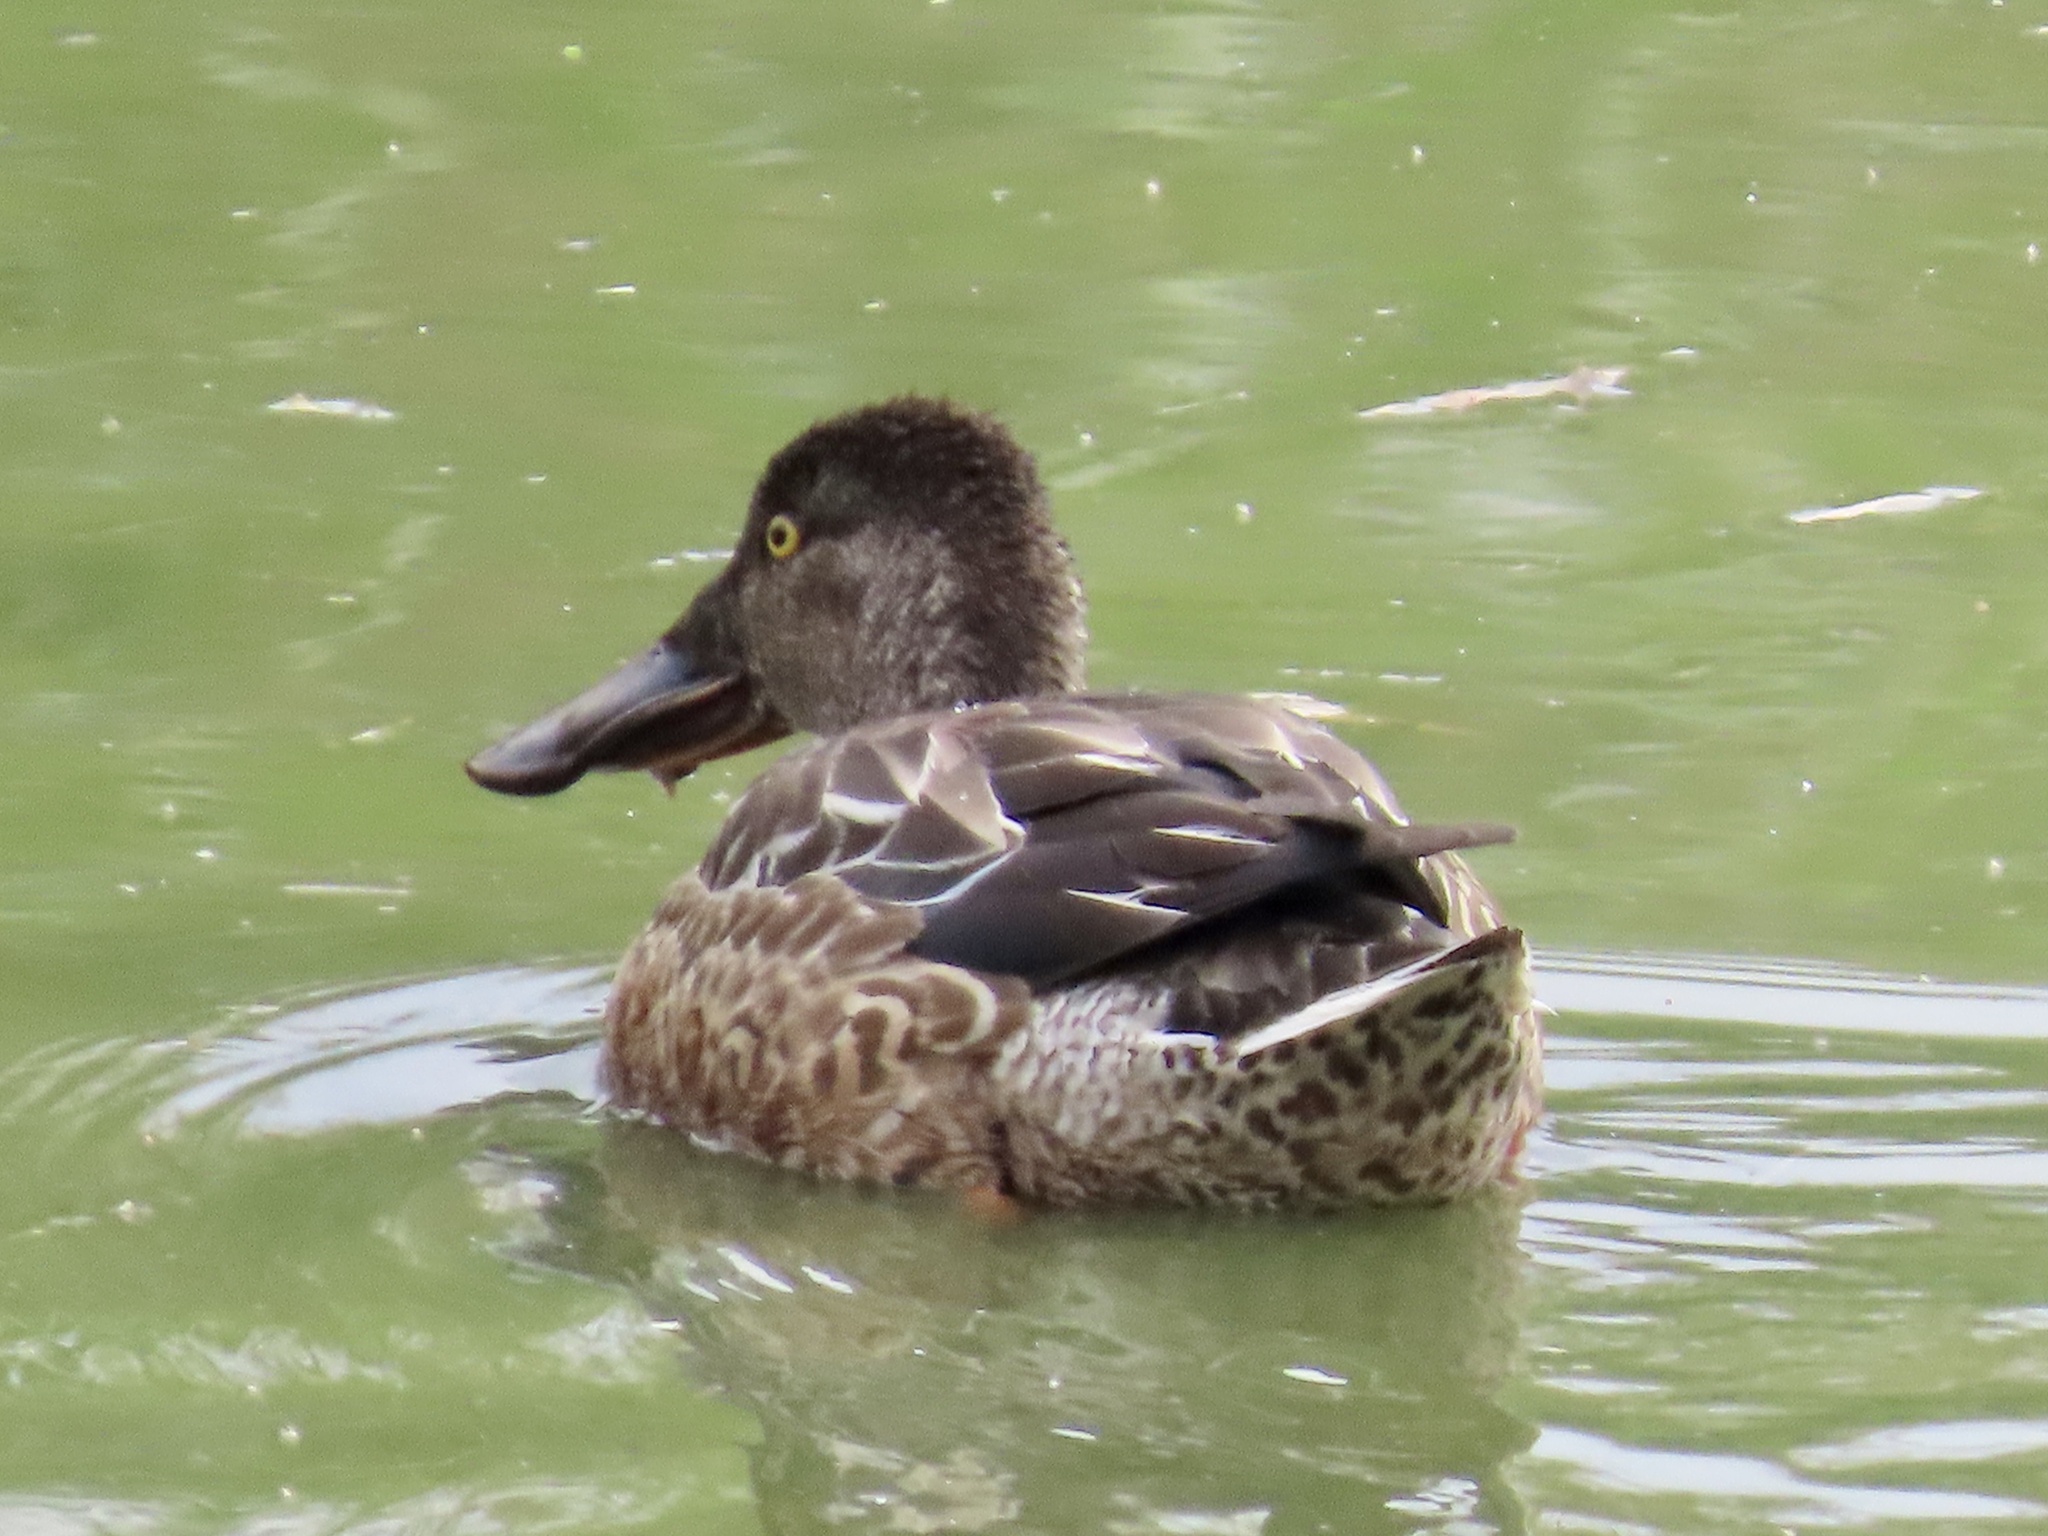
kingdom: Animalia
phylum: Chordata
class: Aves
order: Anseriformes
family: Anatidae
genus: Spatula
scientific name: Spatula clypeata
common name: Northern shoveler
